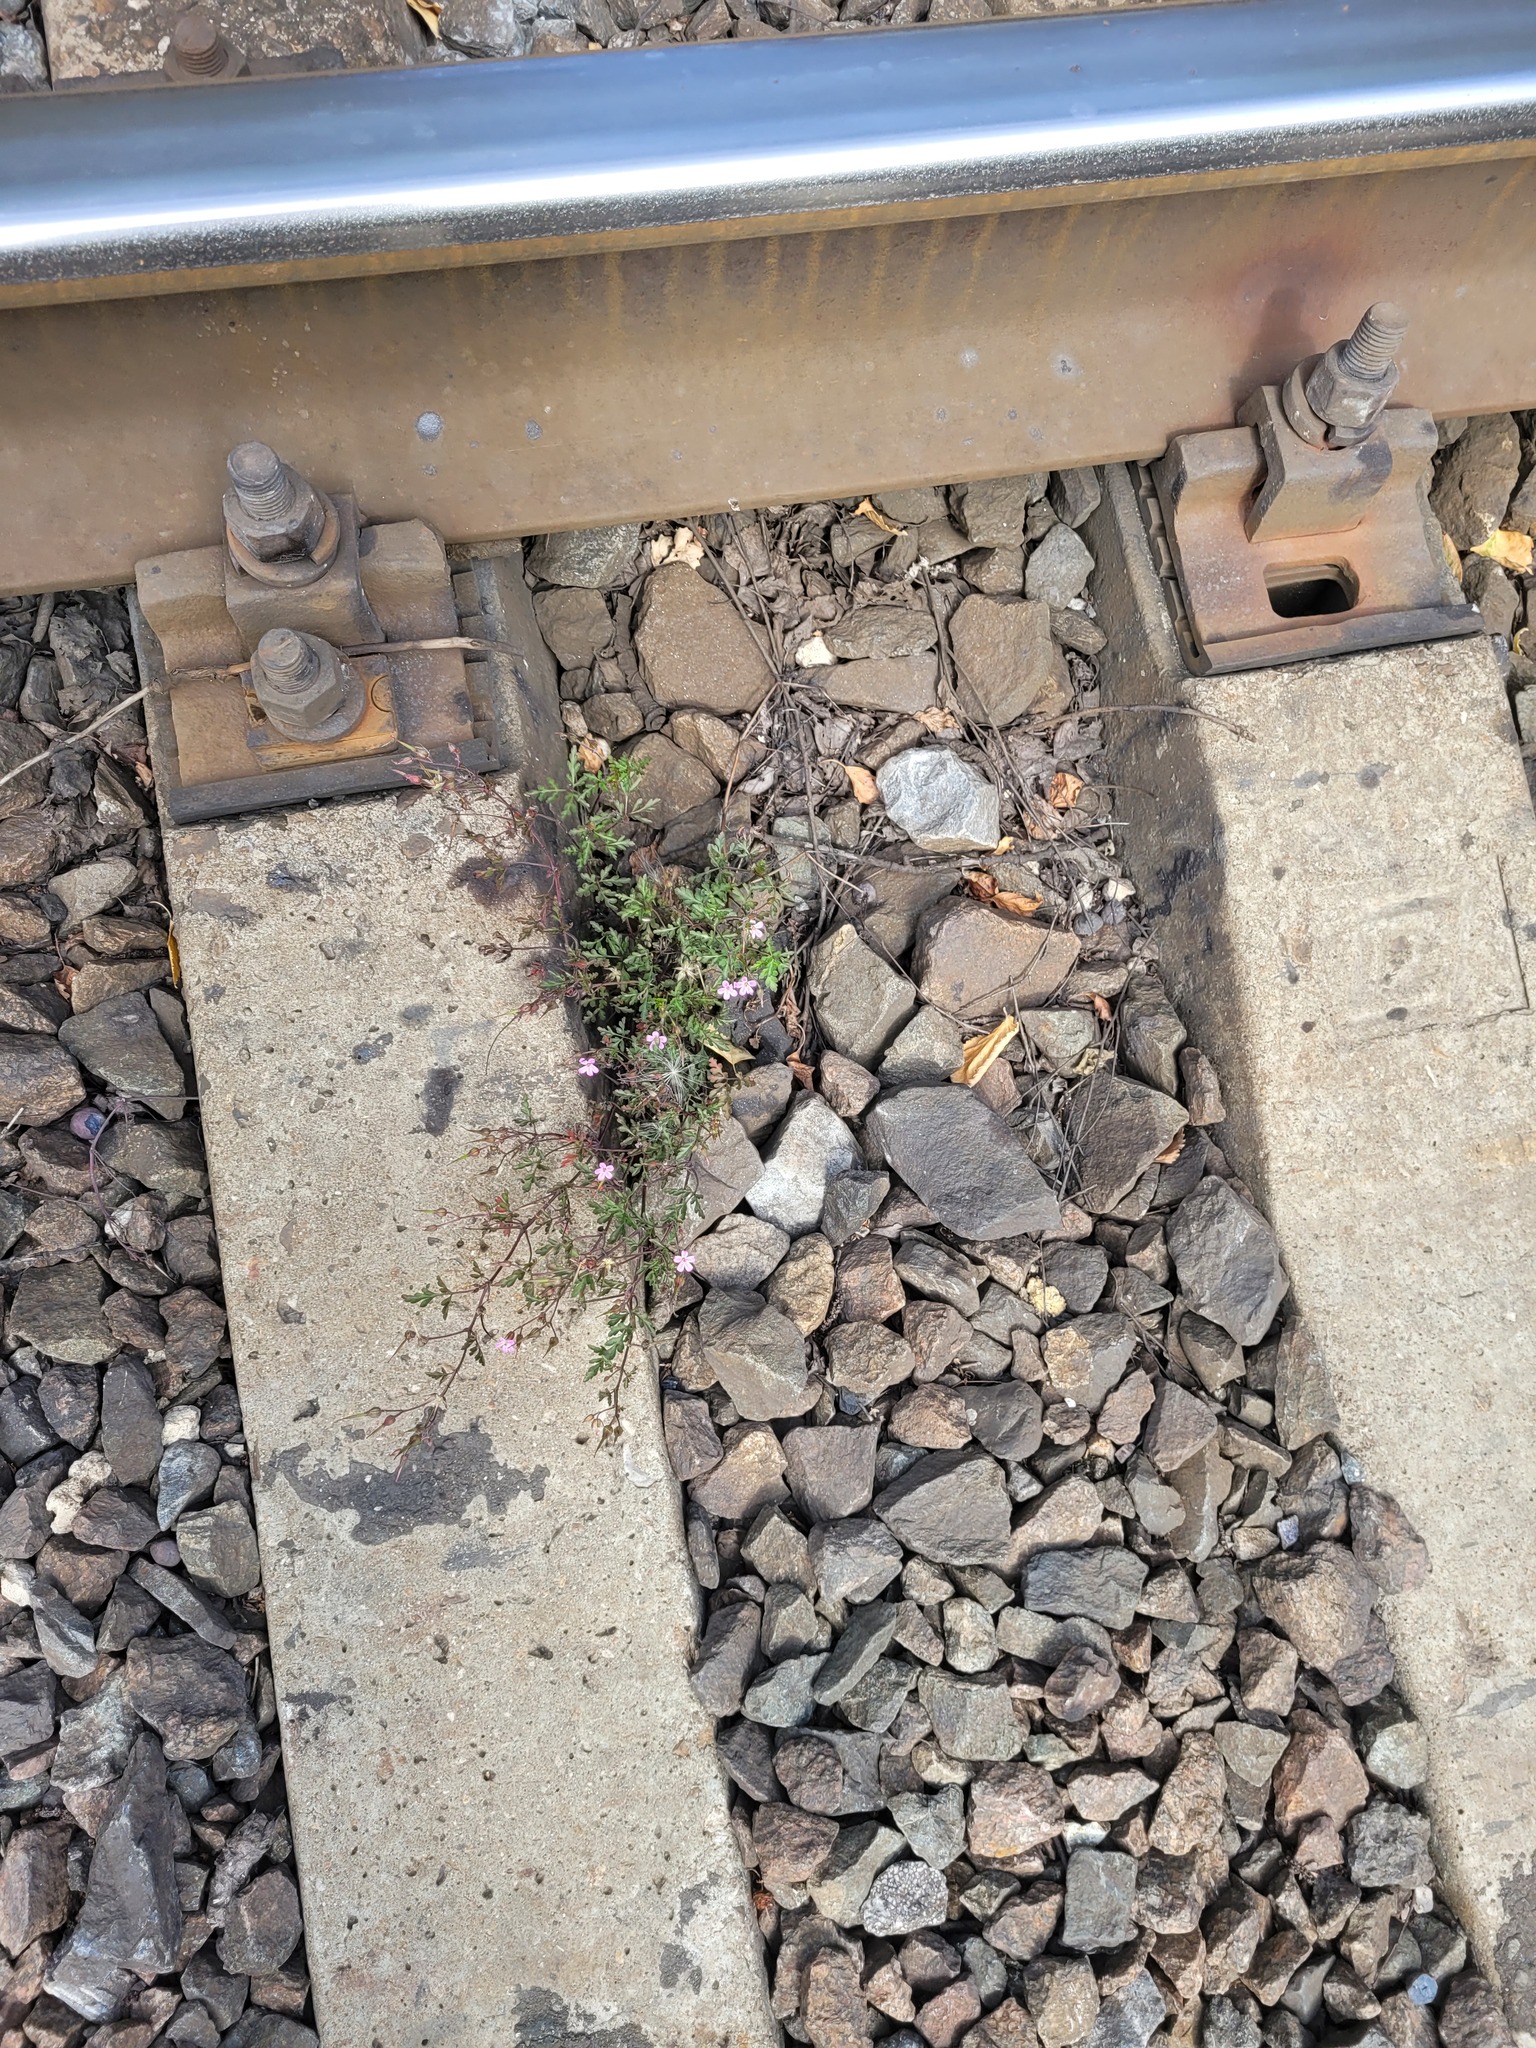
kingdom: Plantae
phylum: Tracheophyta
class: Magnoliopsida
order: Geraniales
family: Geraniaceae
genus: Geranium
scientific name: Geranium robertianum
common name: Herb-robert
